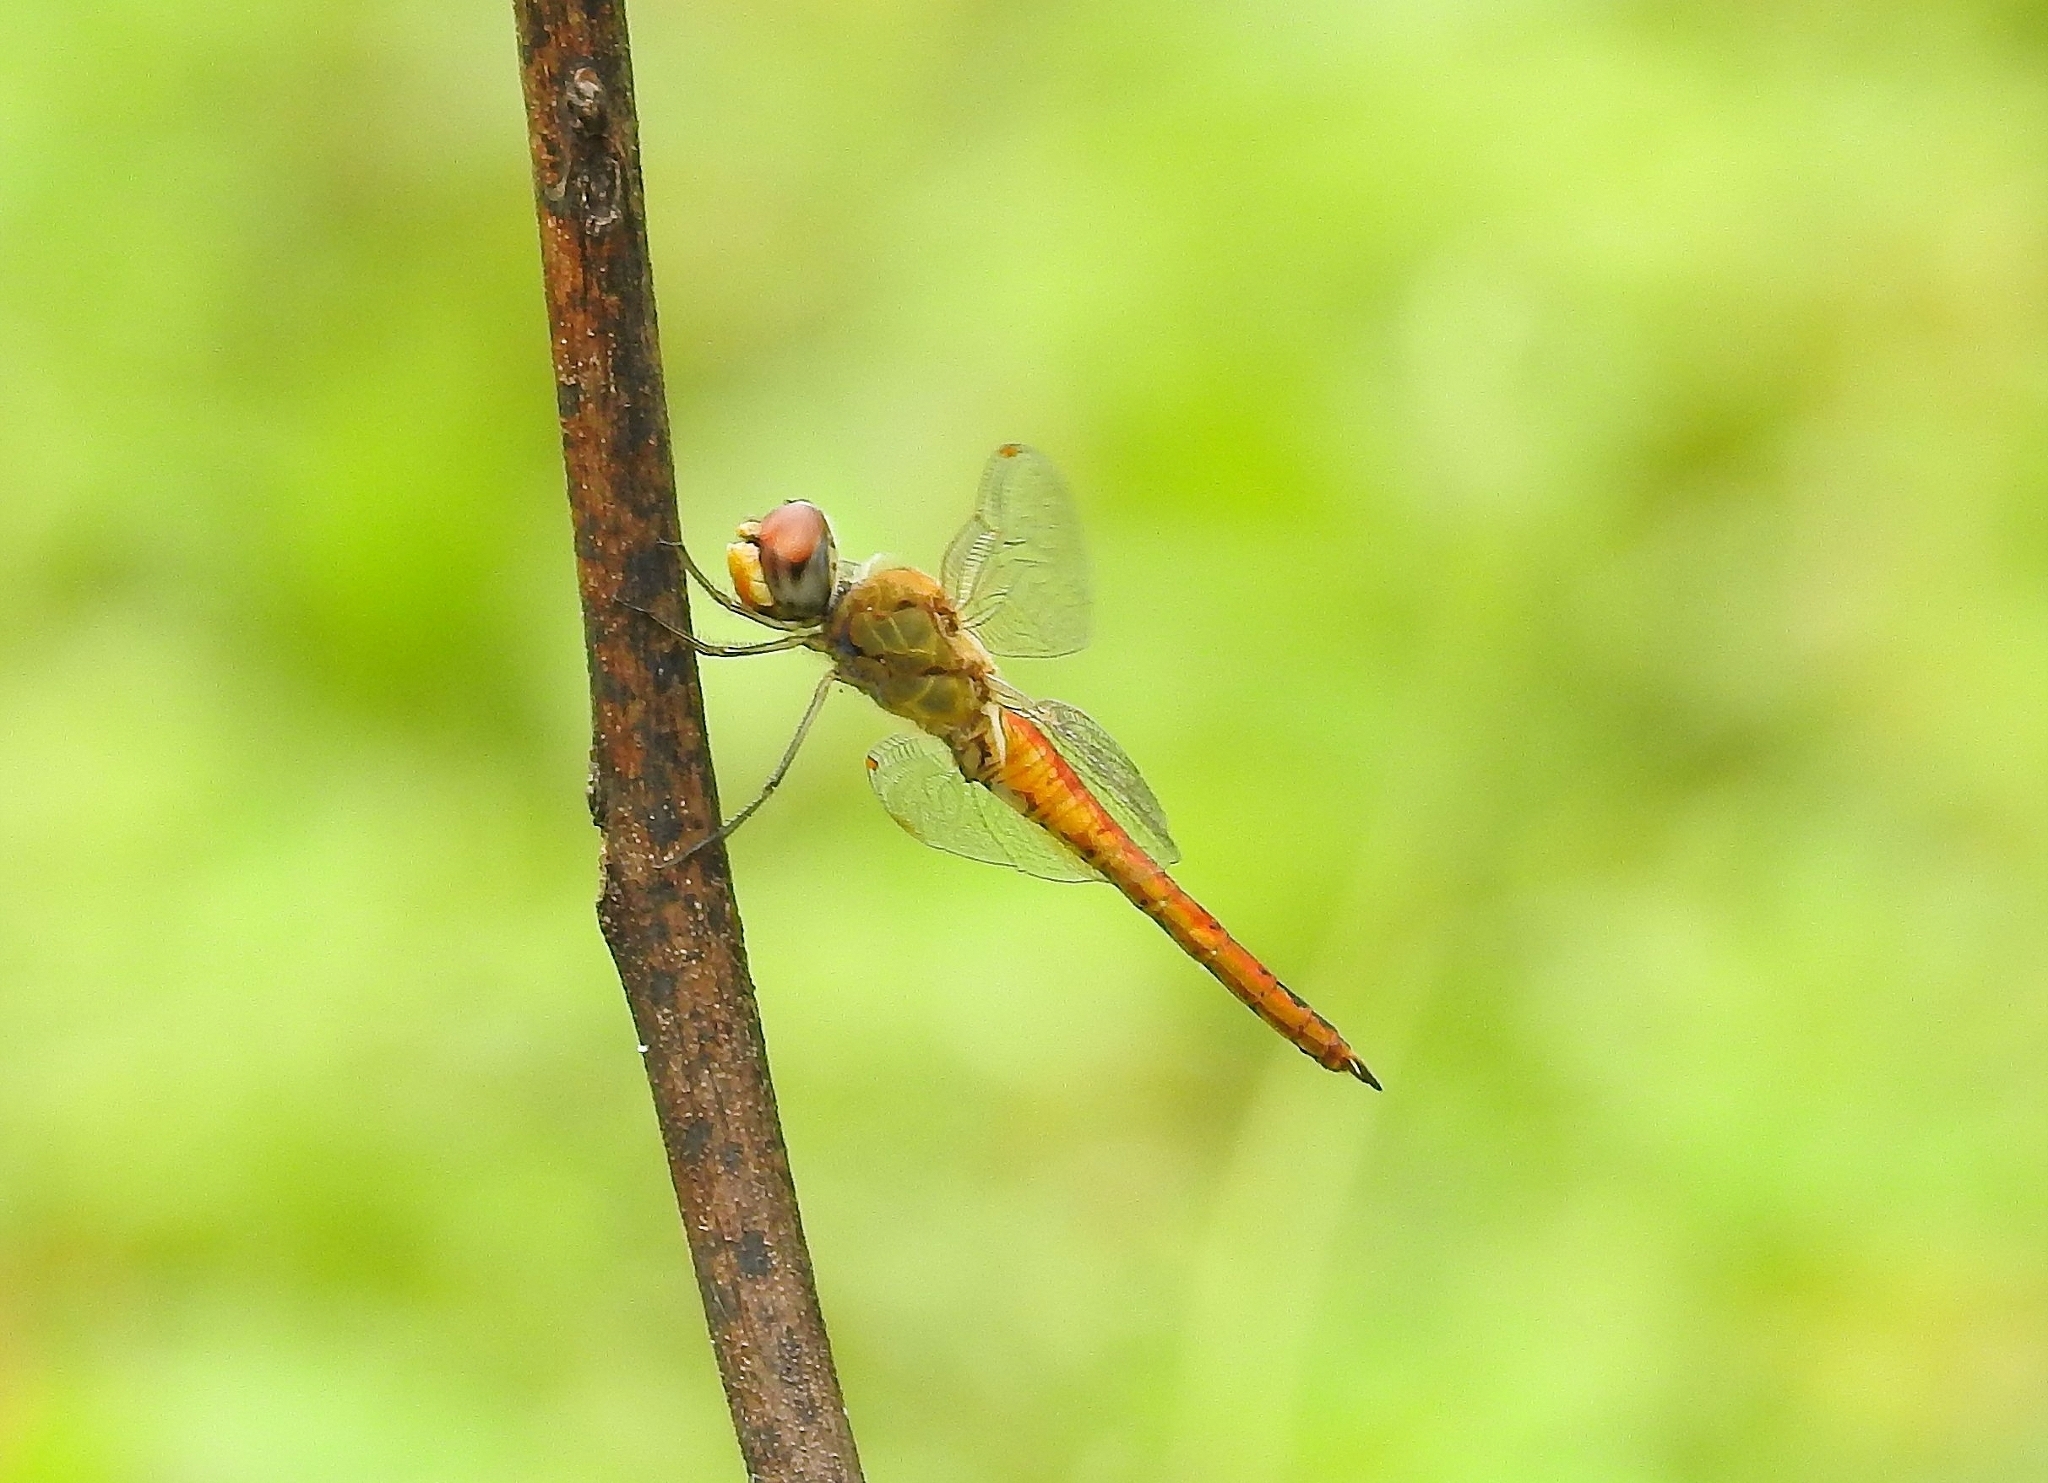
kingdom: Animalia
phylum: Arthropoda
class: Insecta
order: Odonata
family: Libellulidae
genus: Pantala
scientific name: Pantala flavescens
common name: Wandering glider
